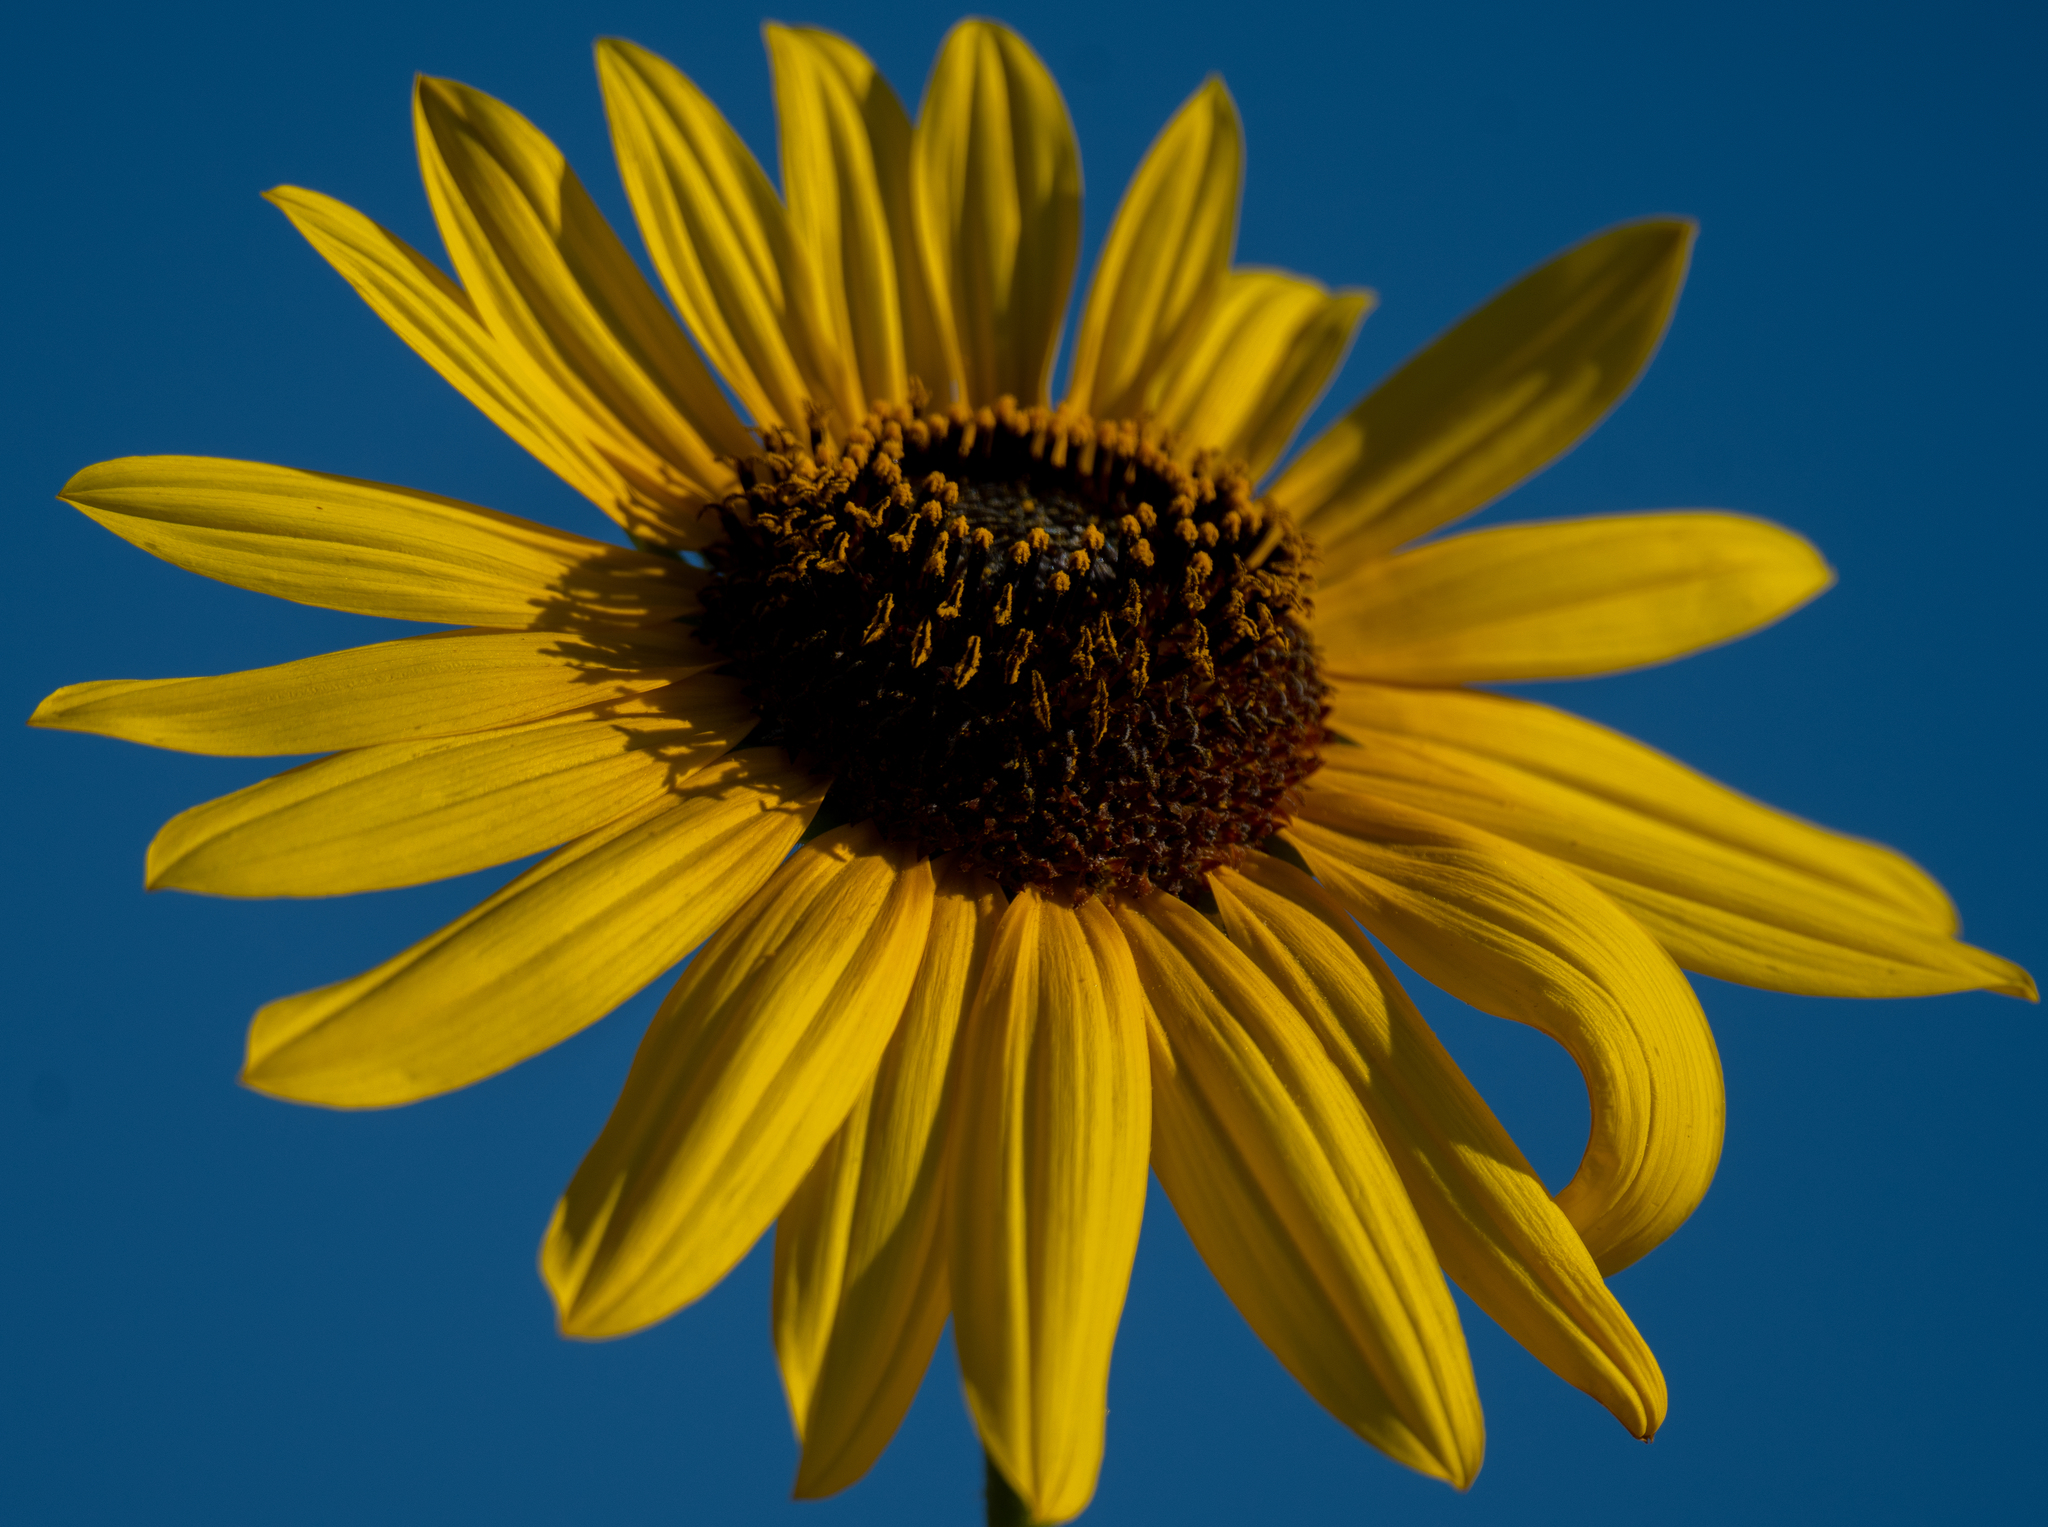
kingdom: Plantae
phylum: Tracheophyta
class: Magnoliopsida
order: Asterales
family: Asteraceae
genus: Helianthus
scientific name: Helianthus annuus
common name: Sunflower
